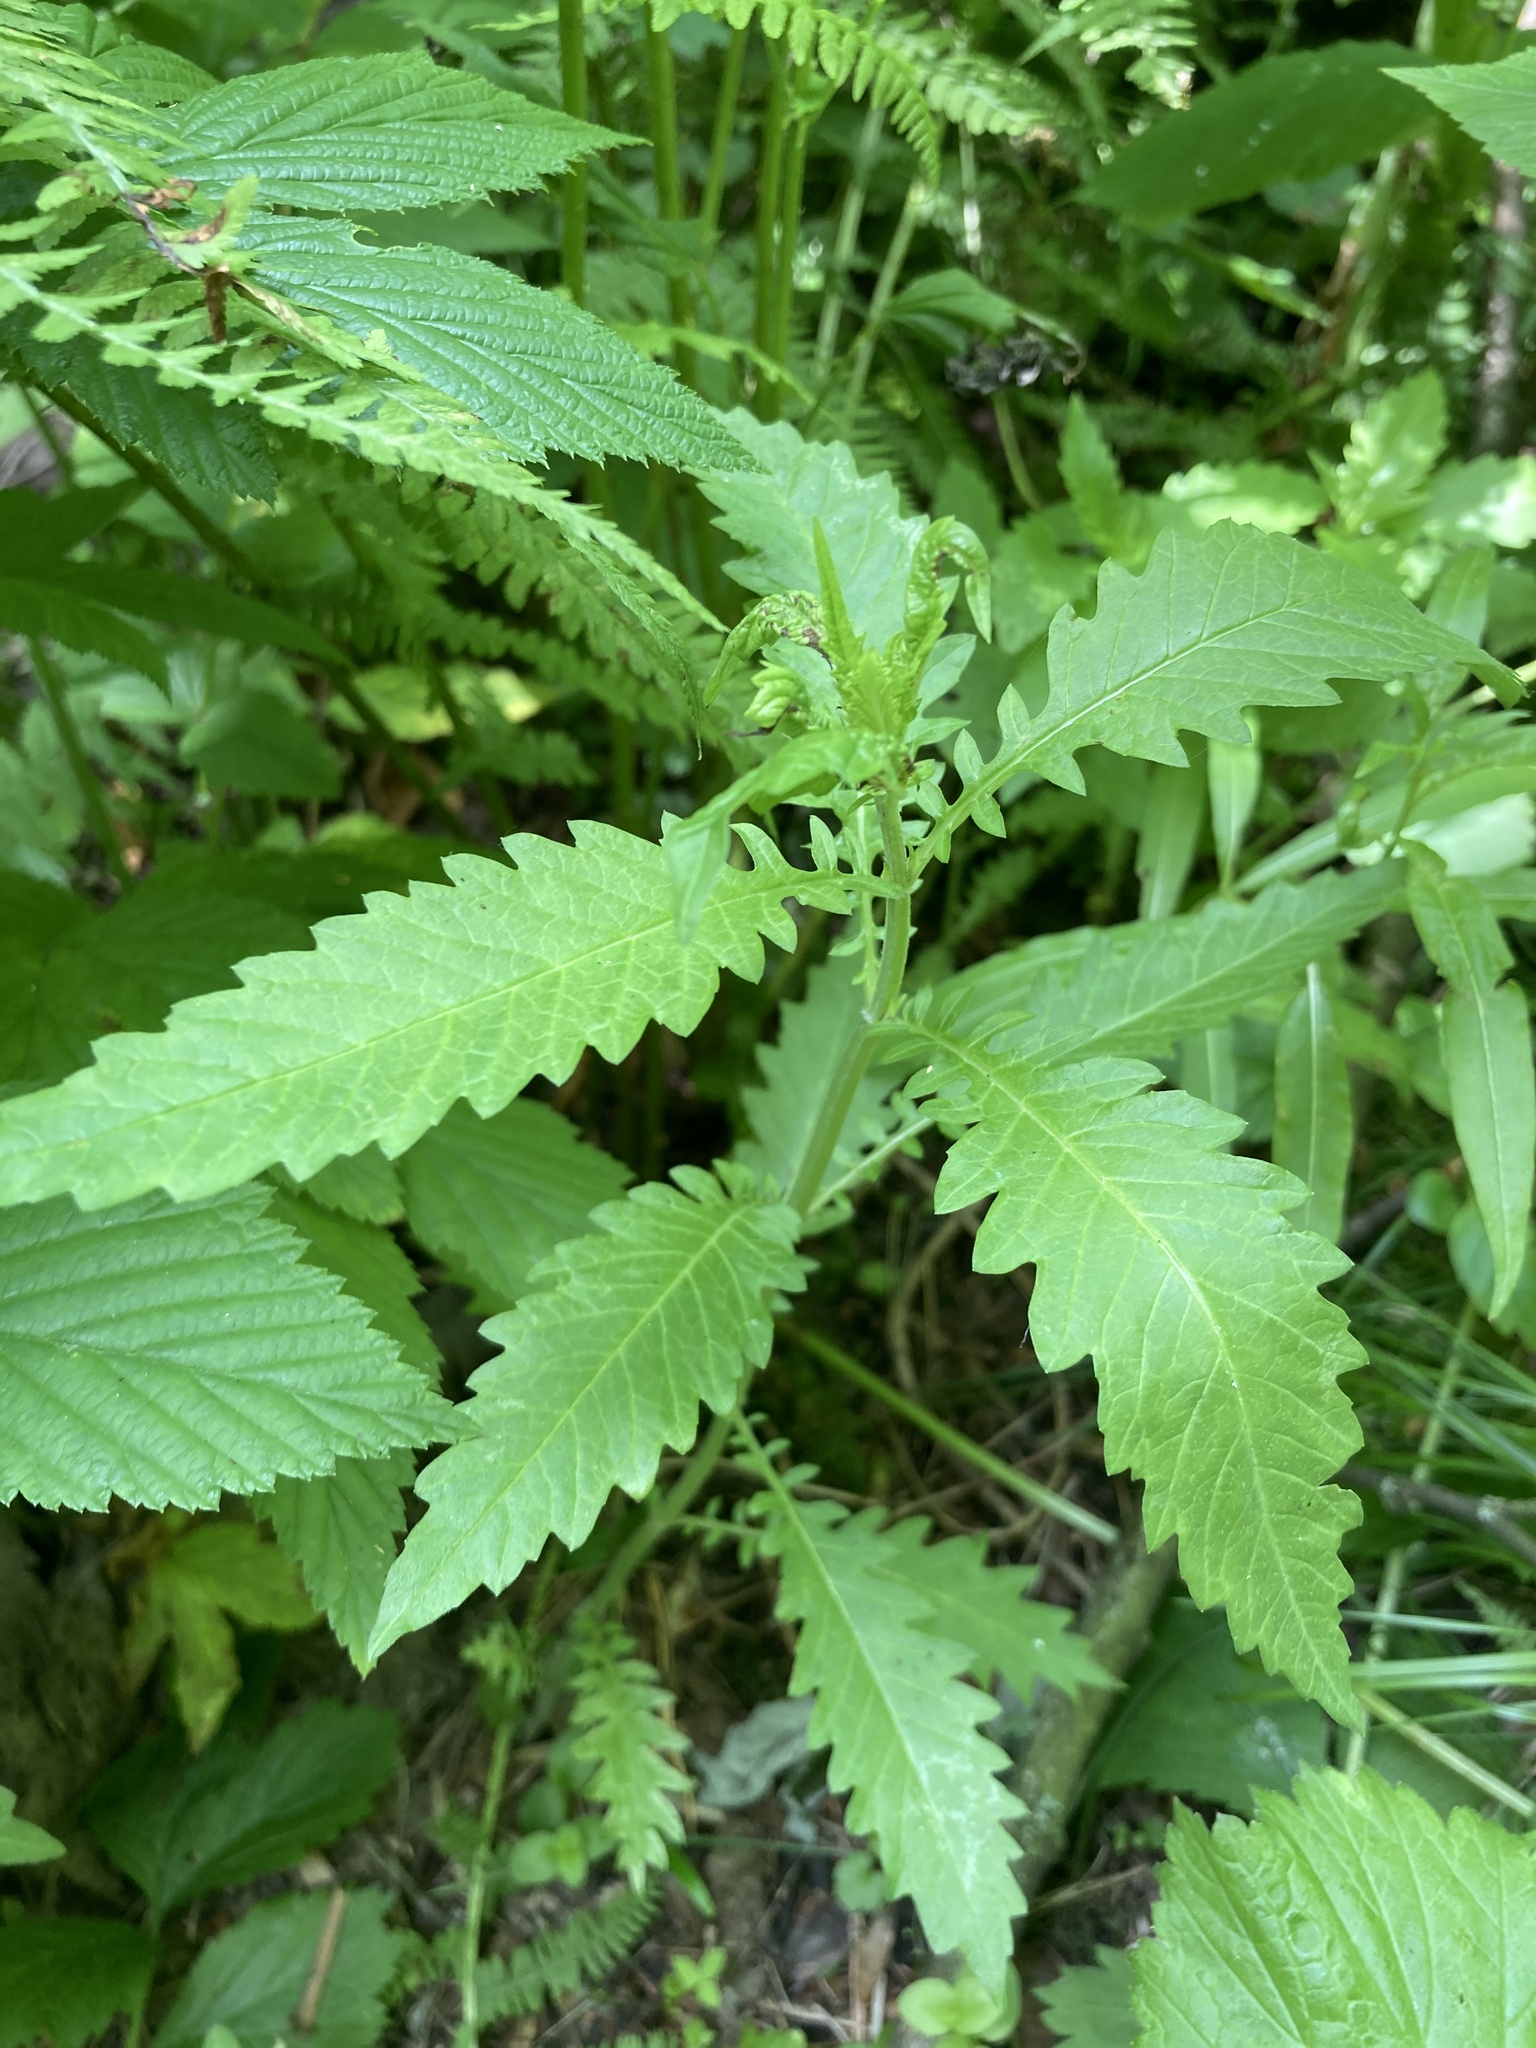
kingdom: Plantae
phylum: Tracheophyta
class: Magnoliopsida
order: Lamiales
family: Lamiaceae
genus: Lycopus
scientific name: Lycopus europaeus
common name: European bugleweed
